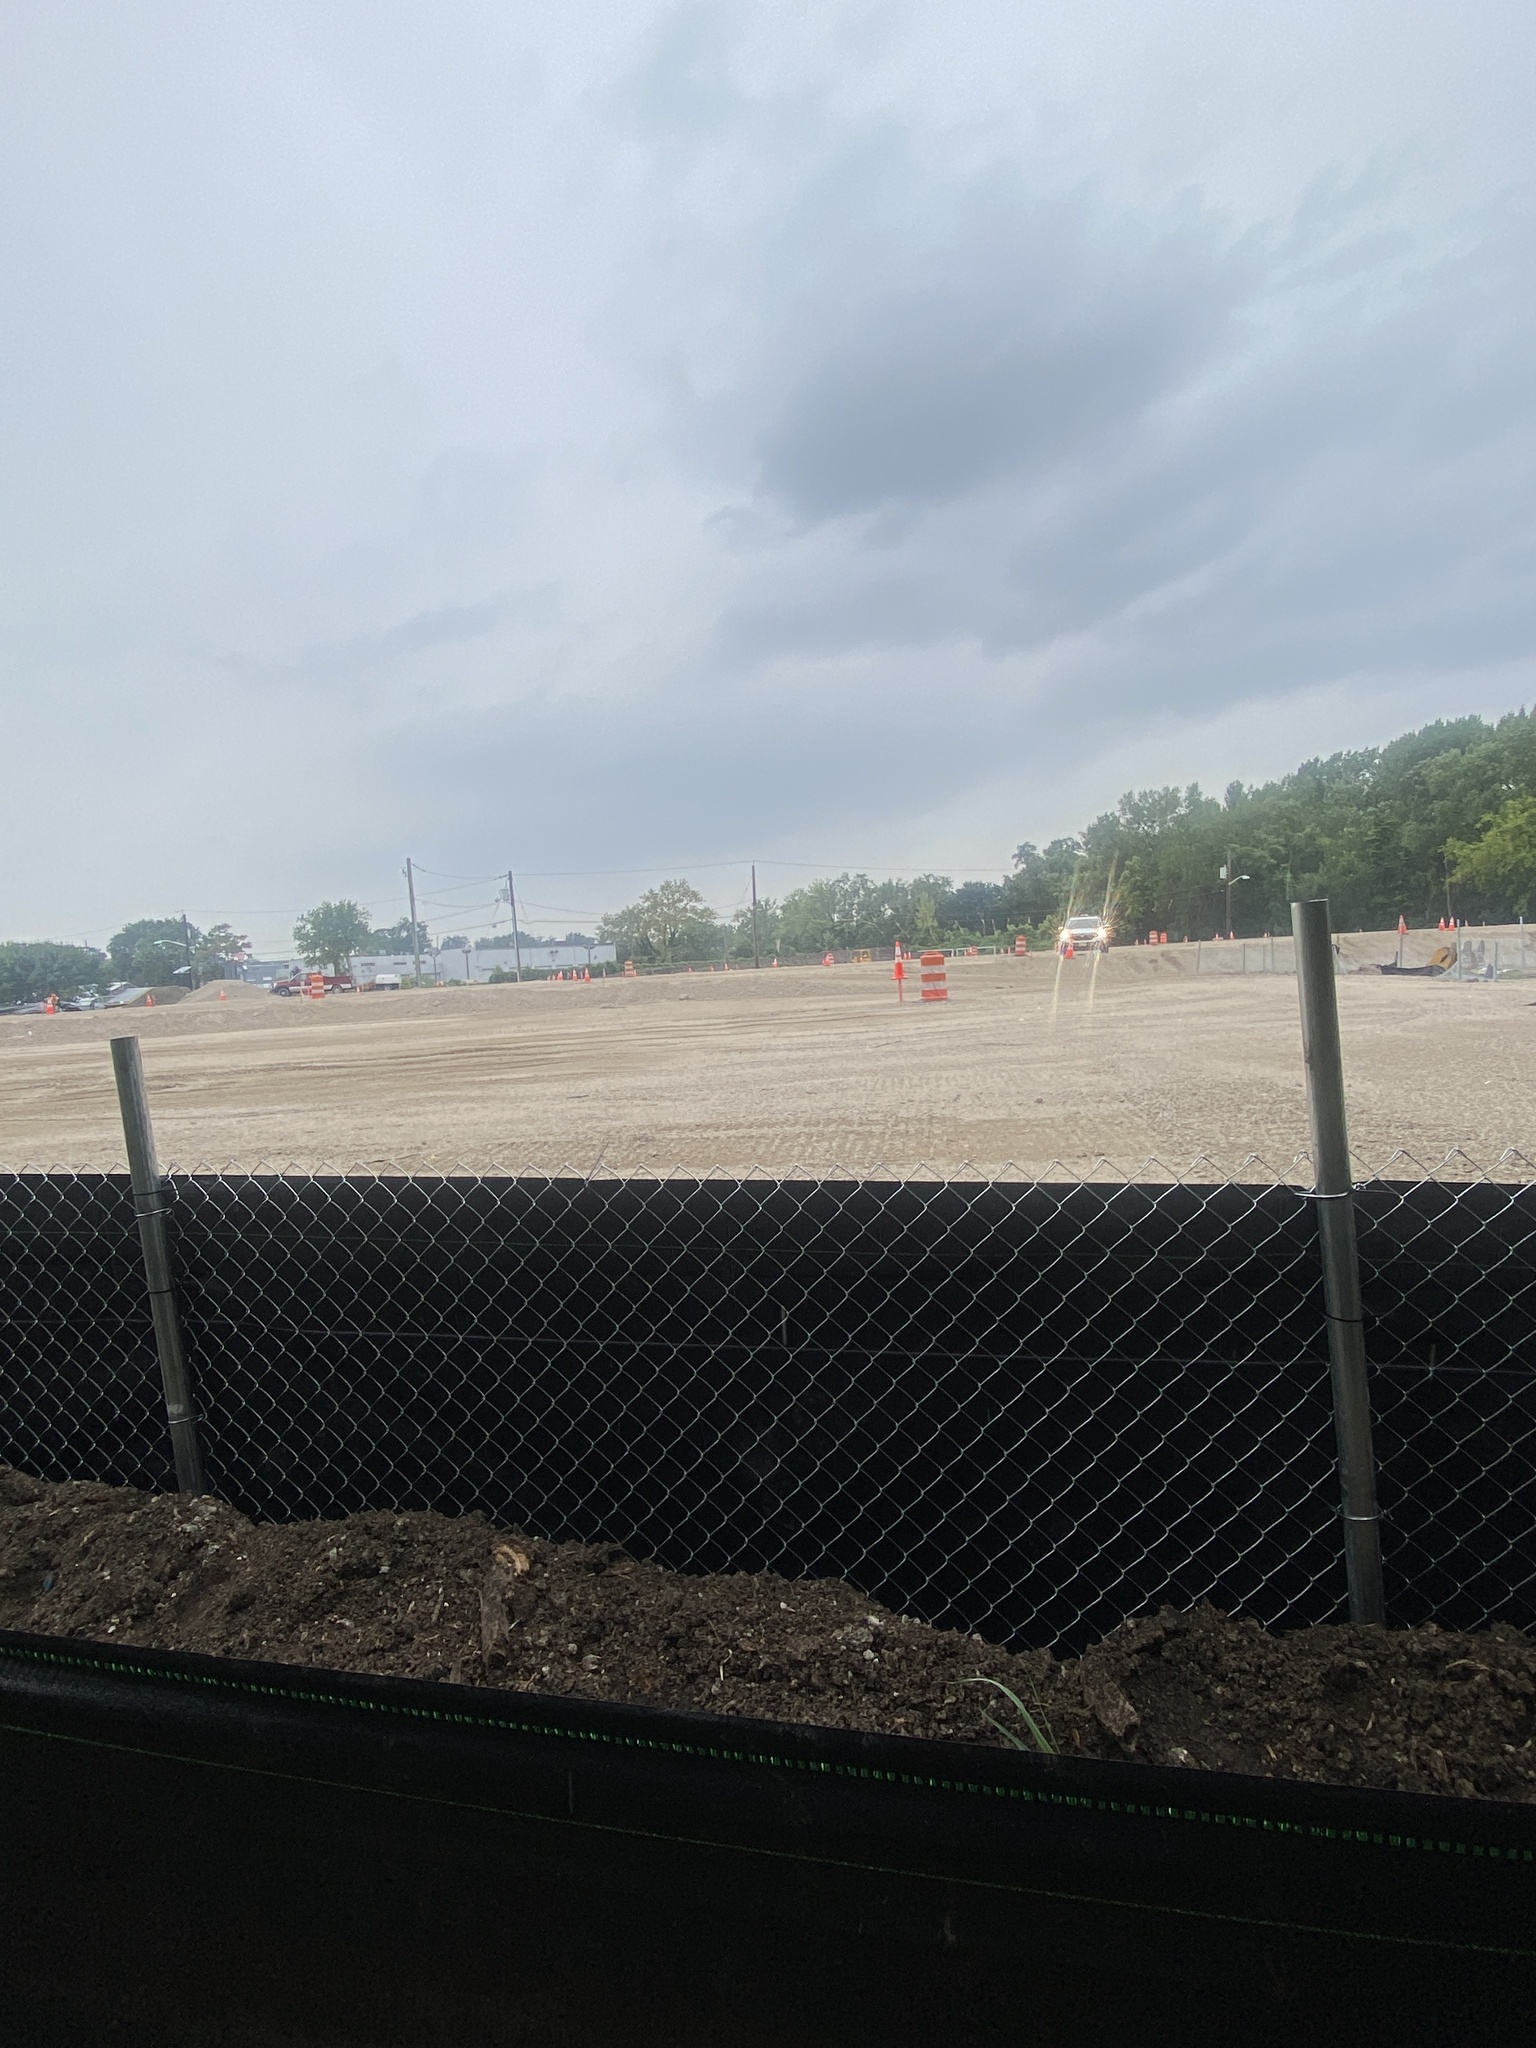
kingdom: Plantae
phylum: Tracheophyta
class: Magnoliopsida
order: Asterales
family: Asteraceae
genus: Solidago
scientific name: Solidago sempervirens
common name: Salt-marsh goldenrod
